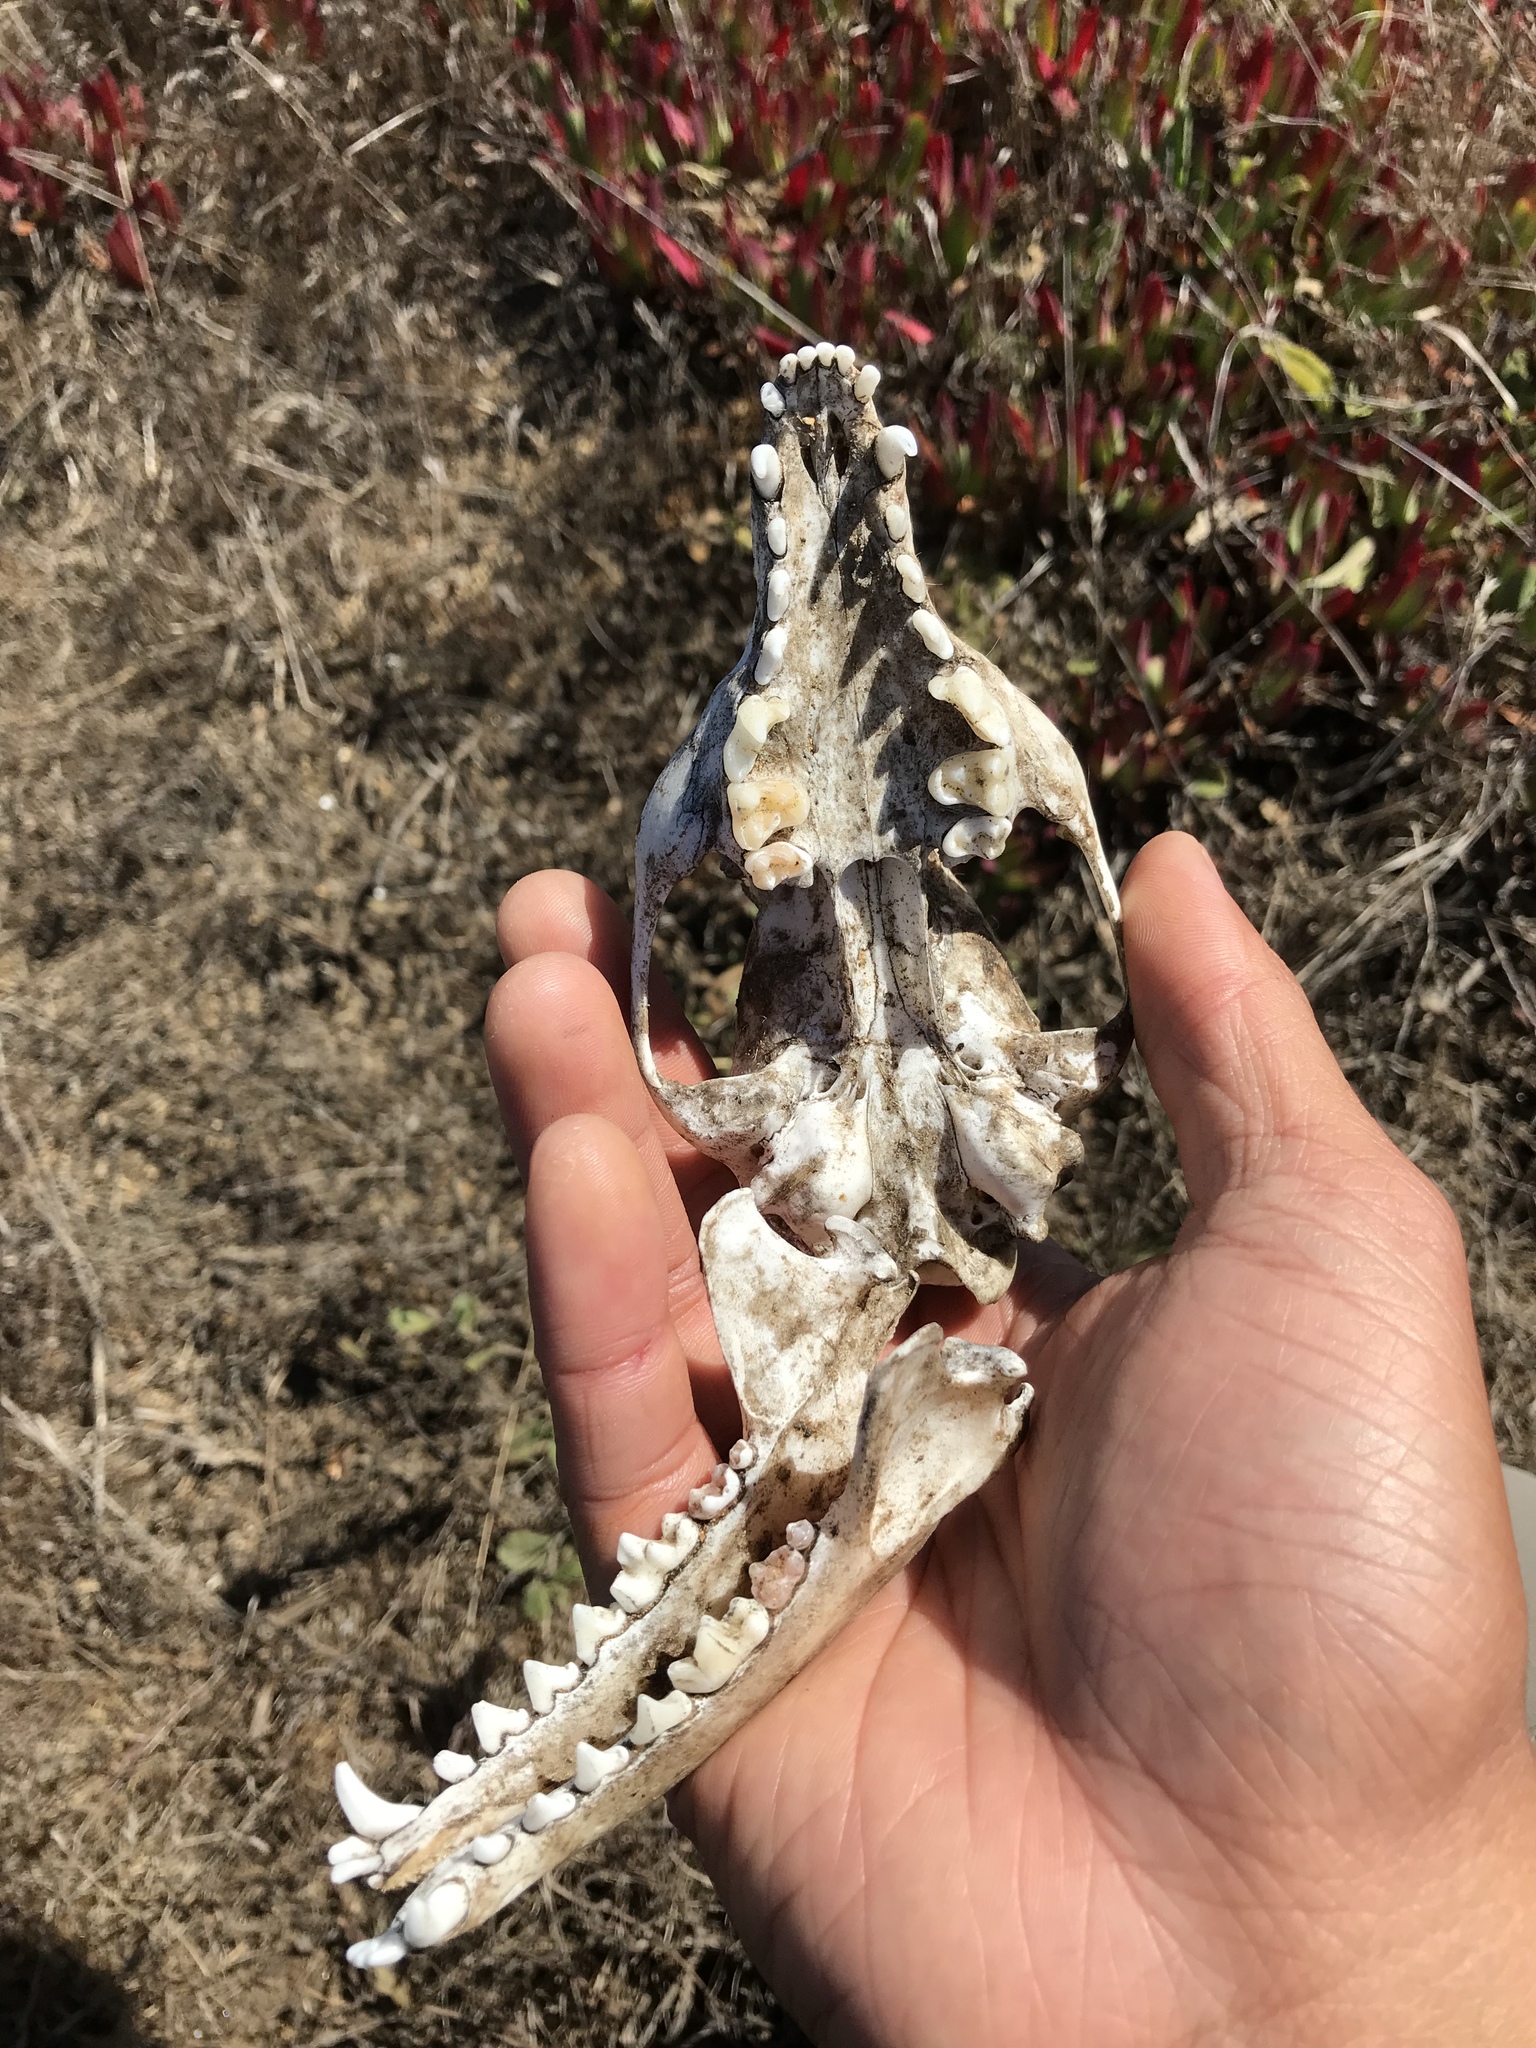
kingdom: Animalia
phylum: Chordata
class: Mammalia
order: Carnivora
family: Canidae
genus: Urocyon
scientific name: Urocyon cinereoargenteus
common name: Gray fox
